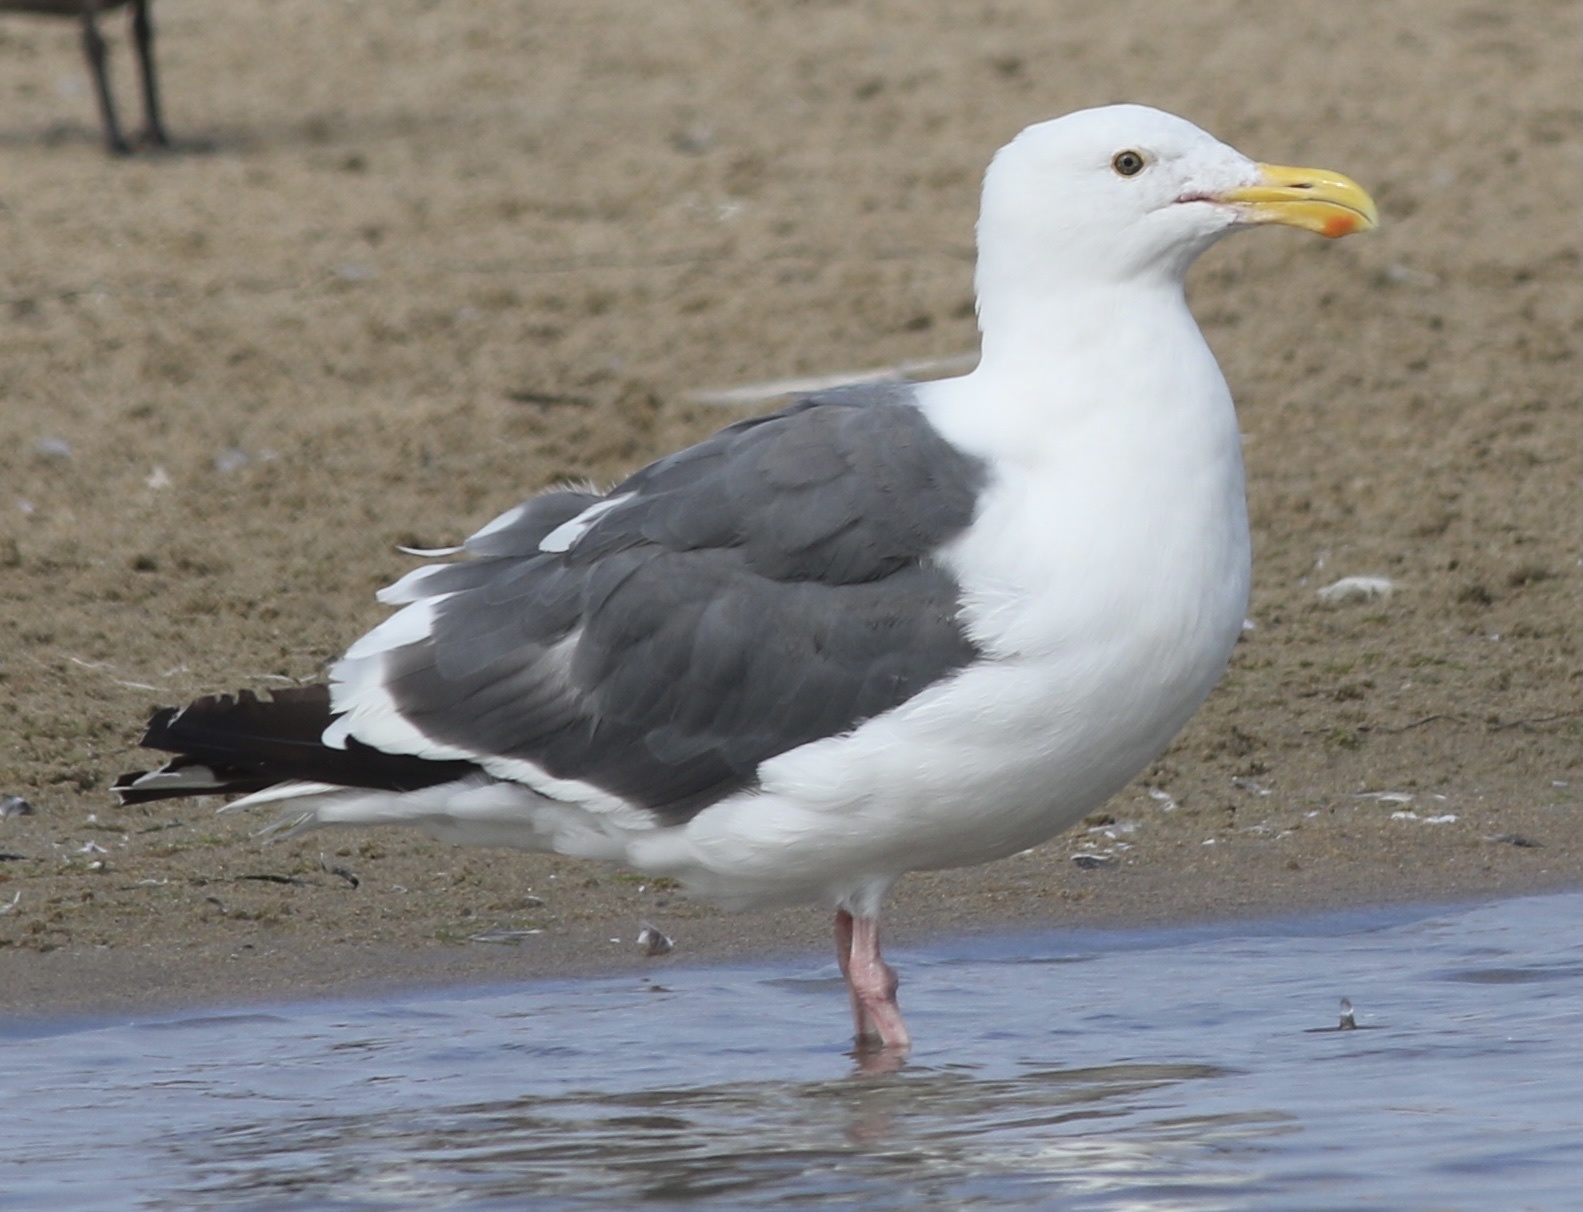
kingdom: Animalia
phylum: Chordata
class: Aves
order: Charadriiformes
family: Laridae
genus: Larus
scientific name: Larus occidentalis
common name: Western gull
